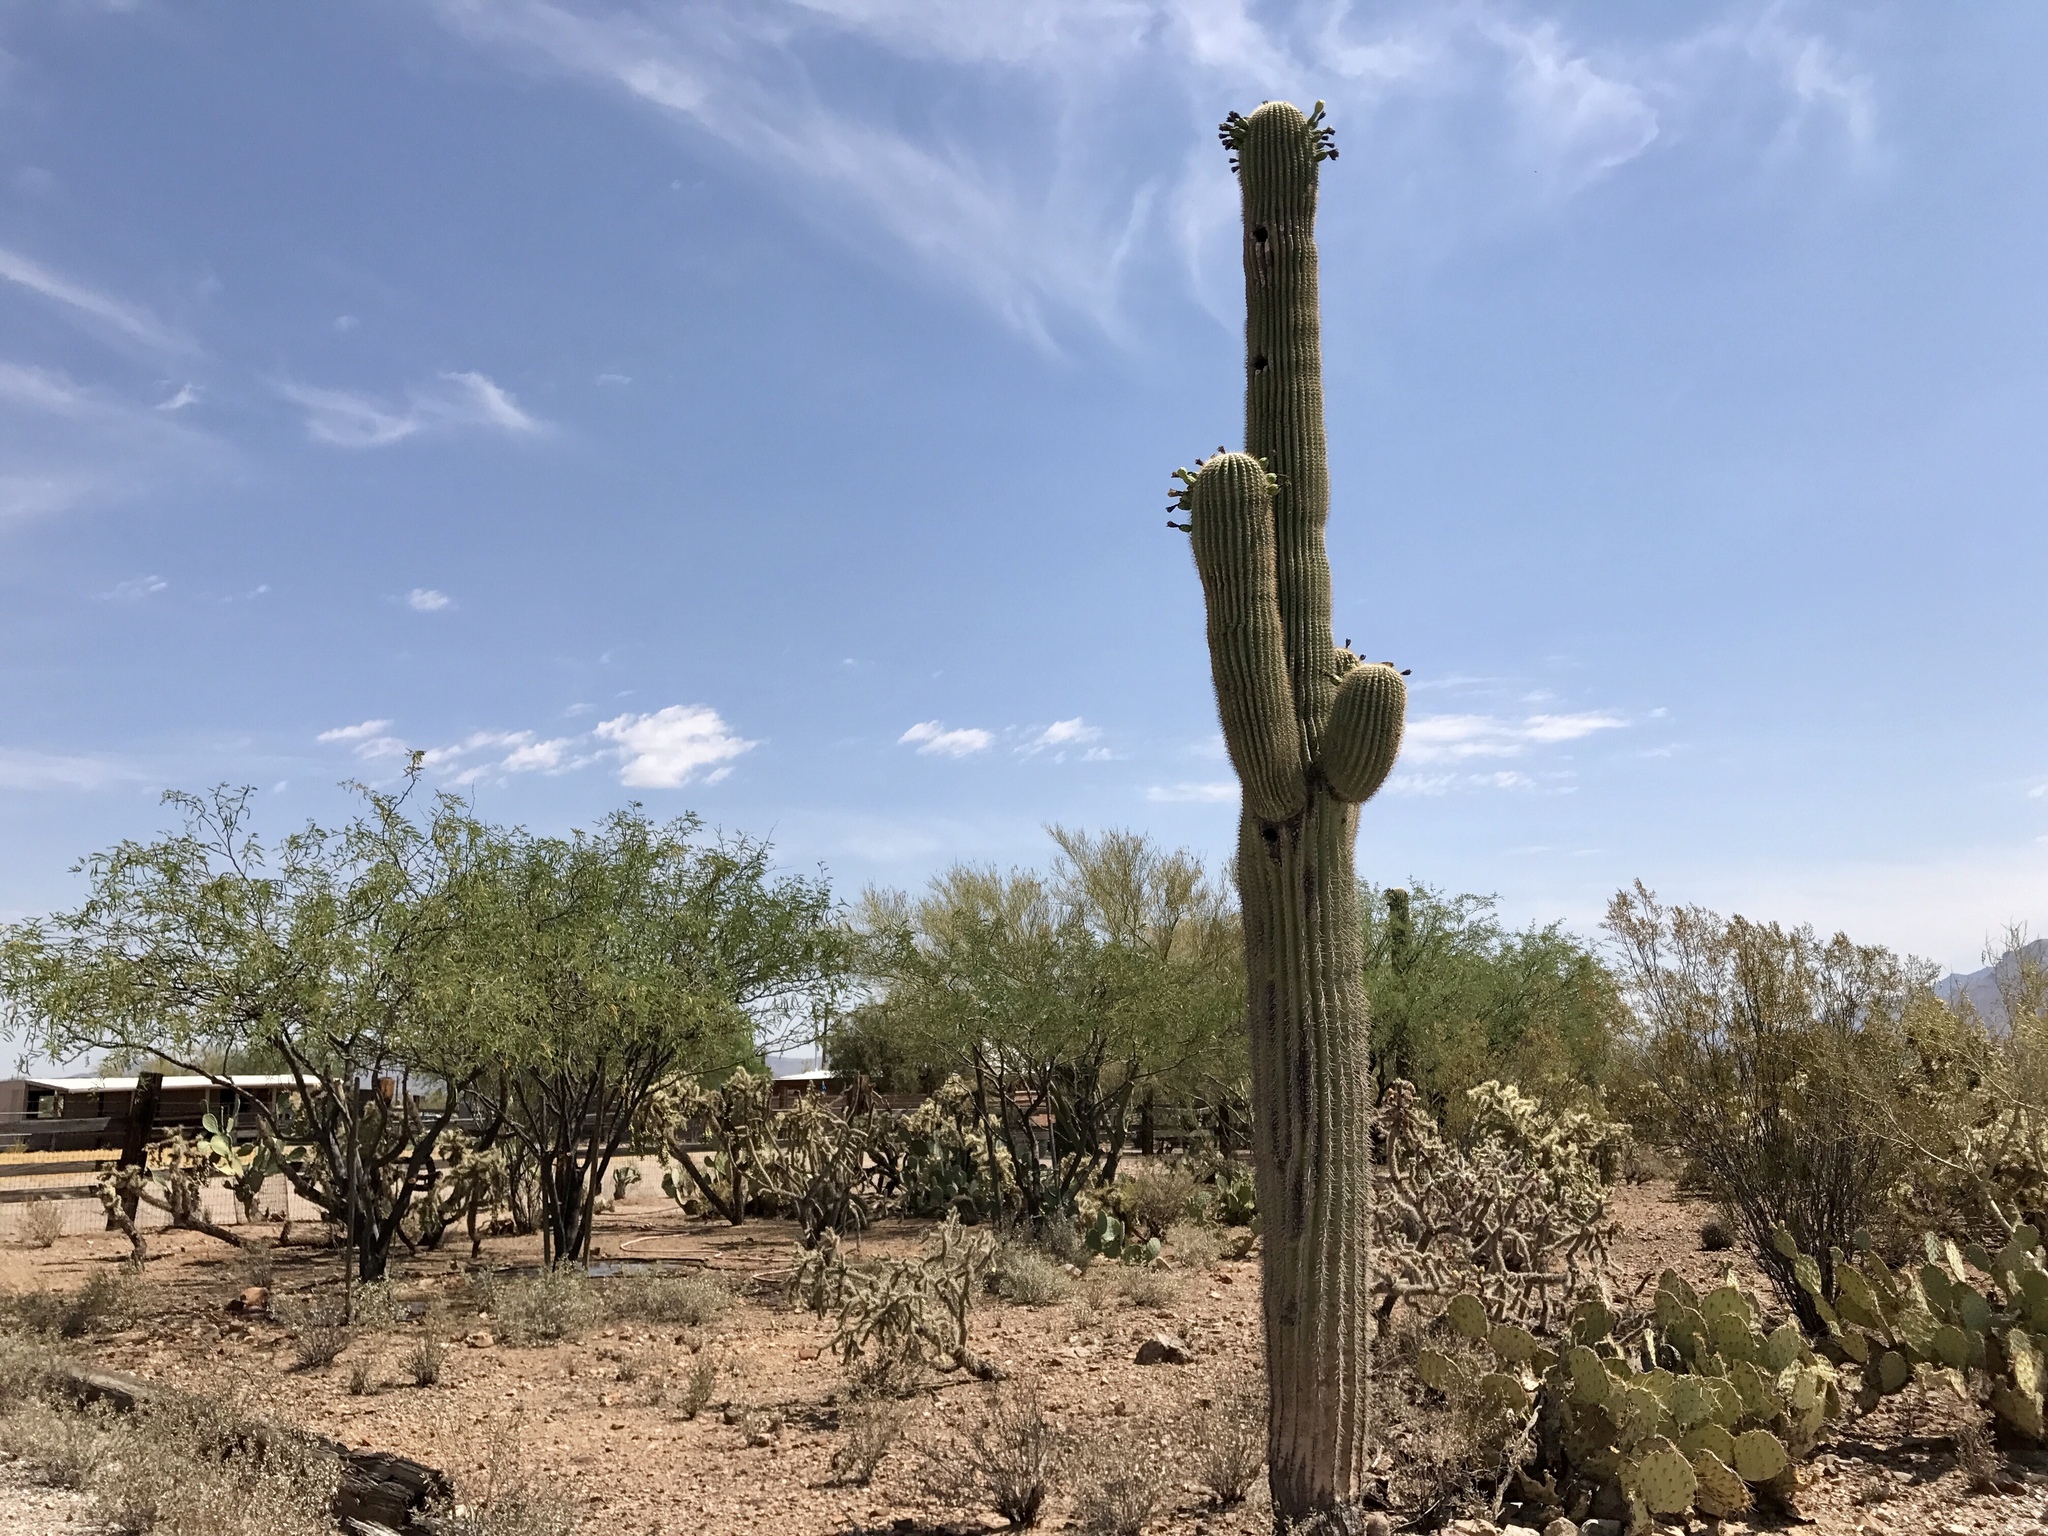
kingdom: Plantae
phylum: Tracheophyta
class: Magnoliopsida
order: Caryophyllales
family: Cactaceae
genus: Carnegiea
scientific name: Carnegiea gigantea
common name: Saguaro
